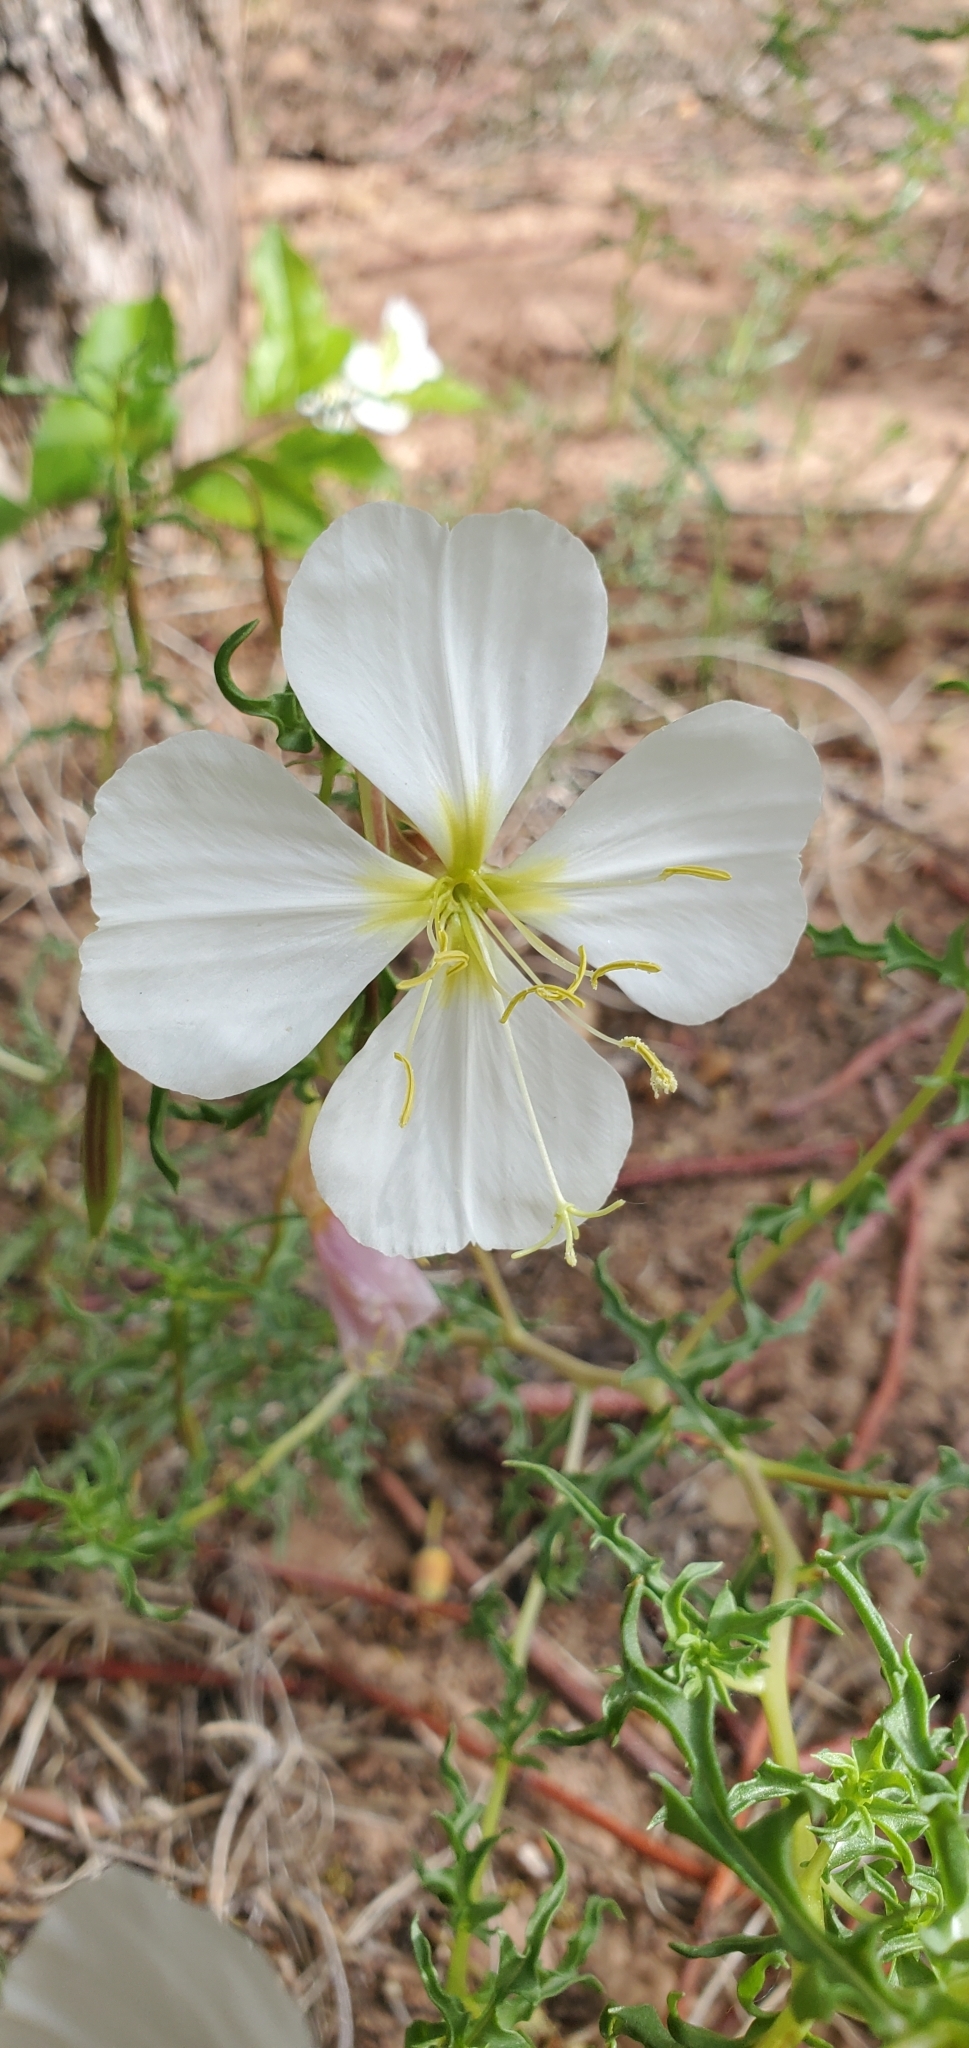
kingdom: Plantae
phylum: Tracheophyta
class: Magnoliopsida
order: Myrtales
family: Onagraceae
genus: Oenothera
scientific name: Oenothera pallida
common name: Pale evening-primrose
